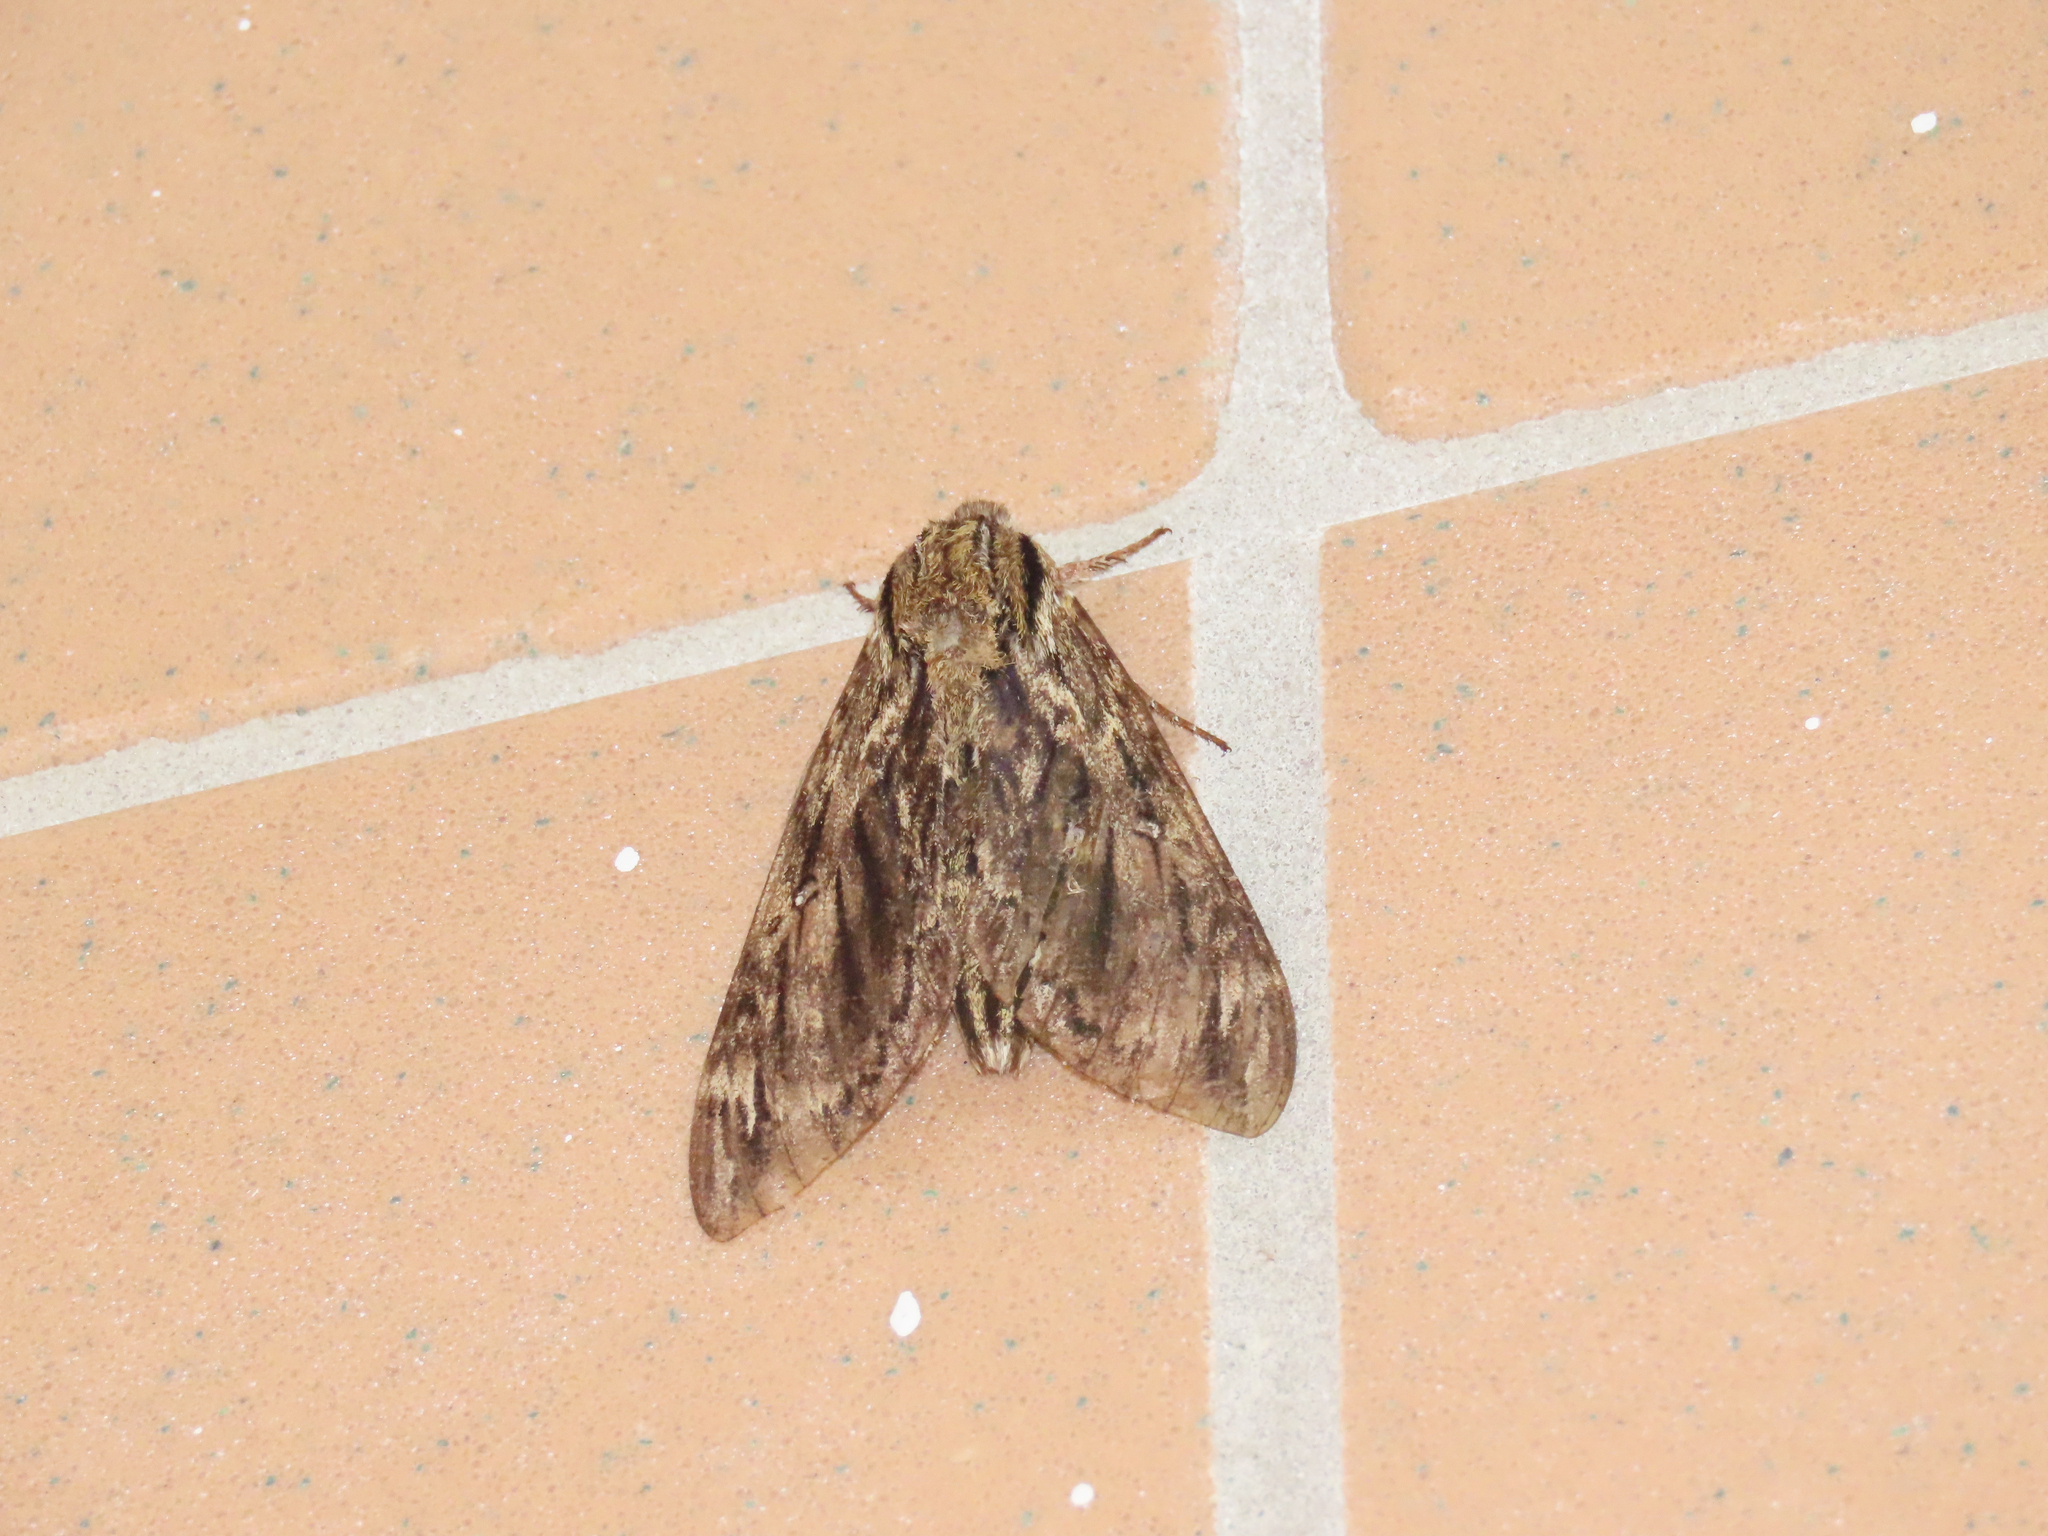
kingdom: Animalia
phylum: Arthropoda
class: Insecta
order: Lepidoptera
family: Sphingidae
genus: Lintneria
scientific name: Lintneria eremitus
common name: Hermit sphinx
